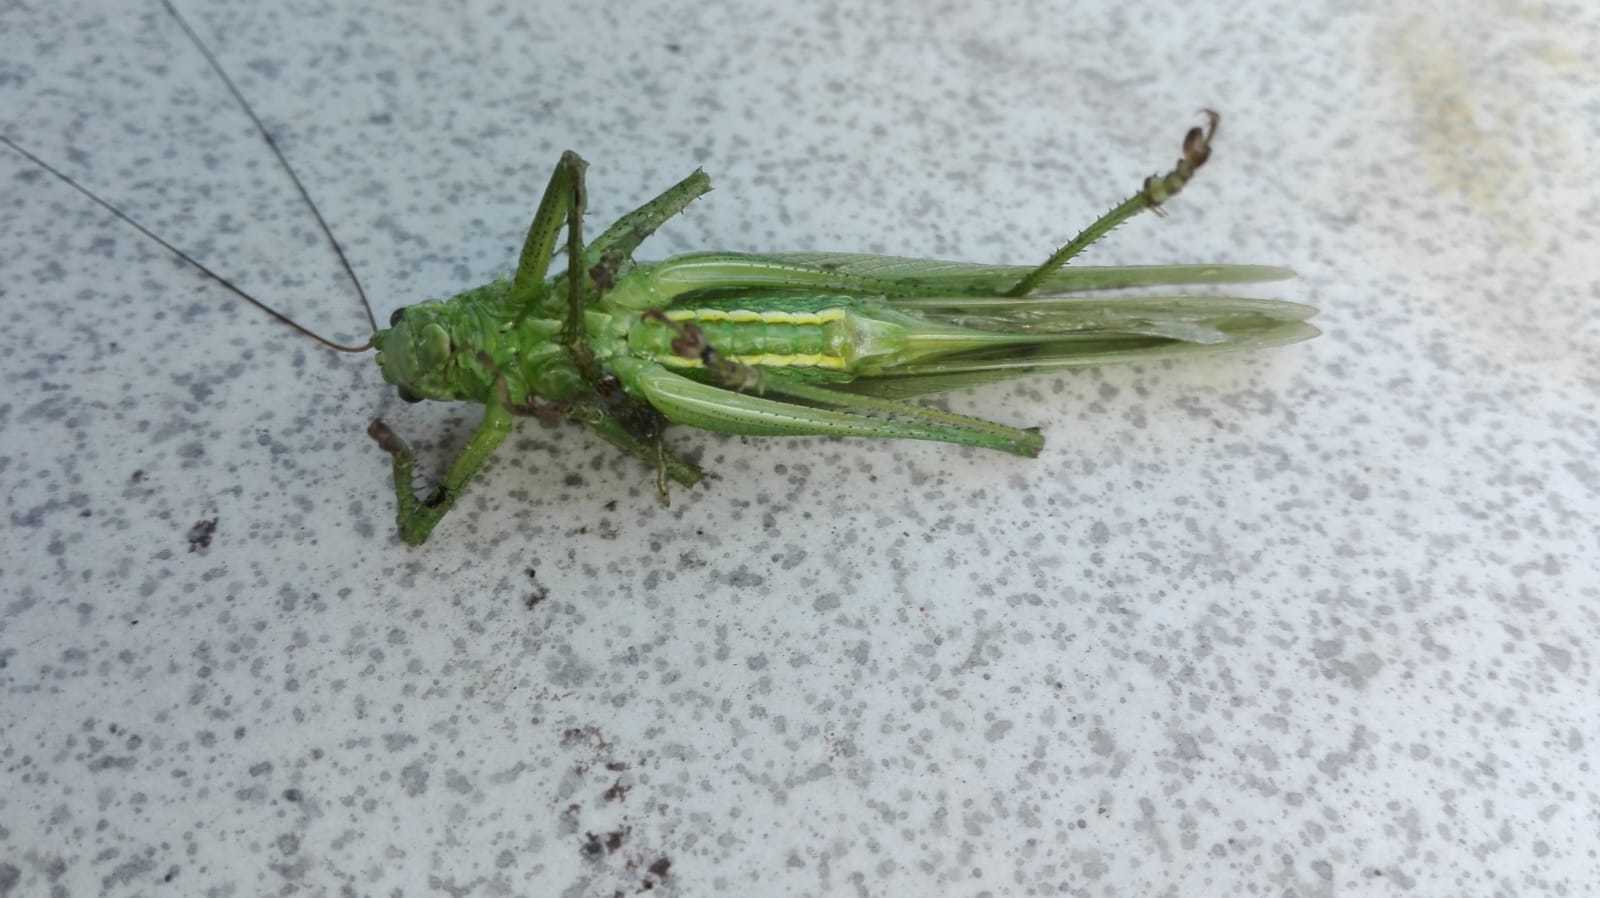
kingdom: Animalia
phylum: Arthropoda
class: Insecta
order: Orthoptera
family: Tettigoniidae
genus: Tettigonia
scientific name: Tettigonia viridissima
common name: Great green bush-cricket
